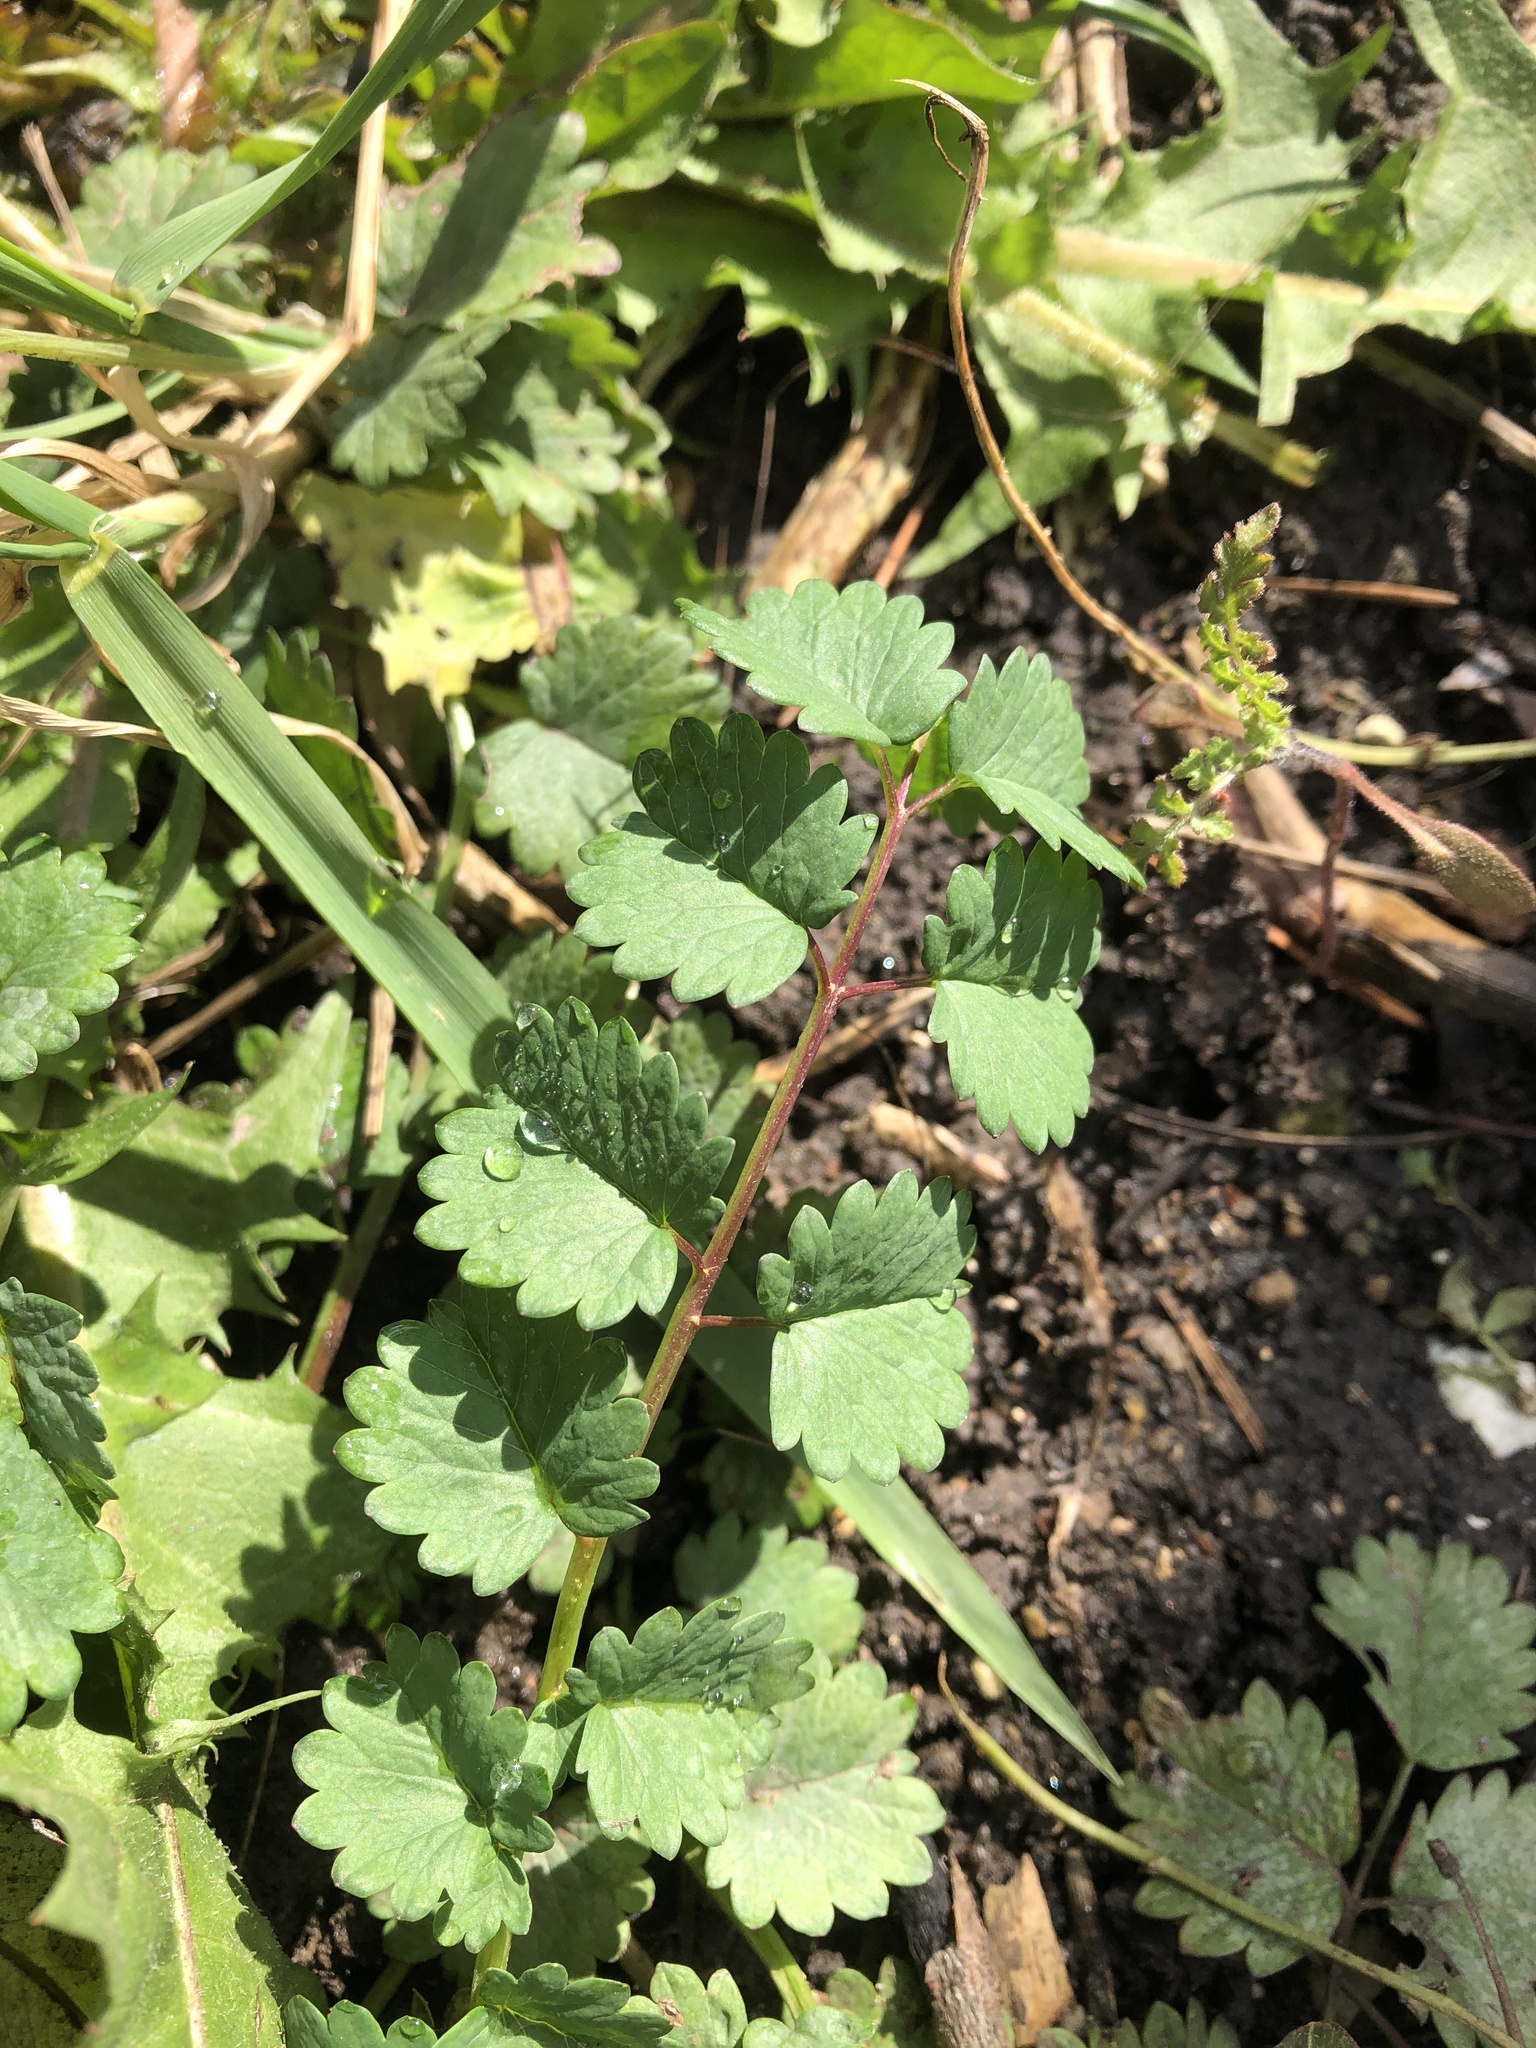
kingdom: Plantae
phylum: Tracheophyta
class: Magnoliopsida
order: Rosales
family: Rosaceae
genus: Poterium
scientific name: Poterium sanguisorba
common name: Salad burnet
